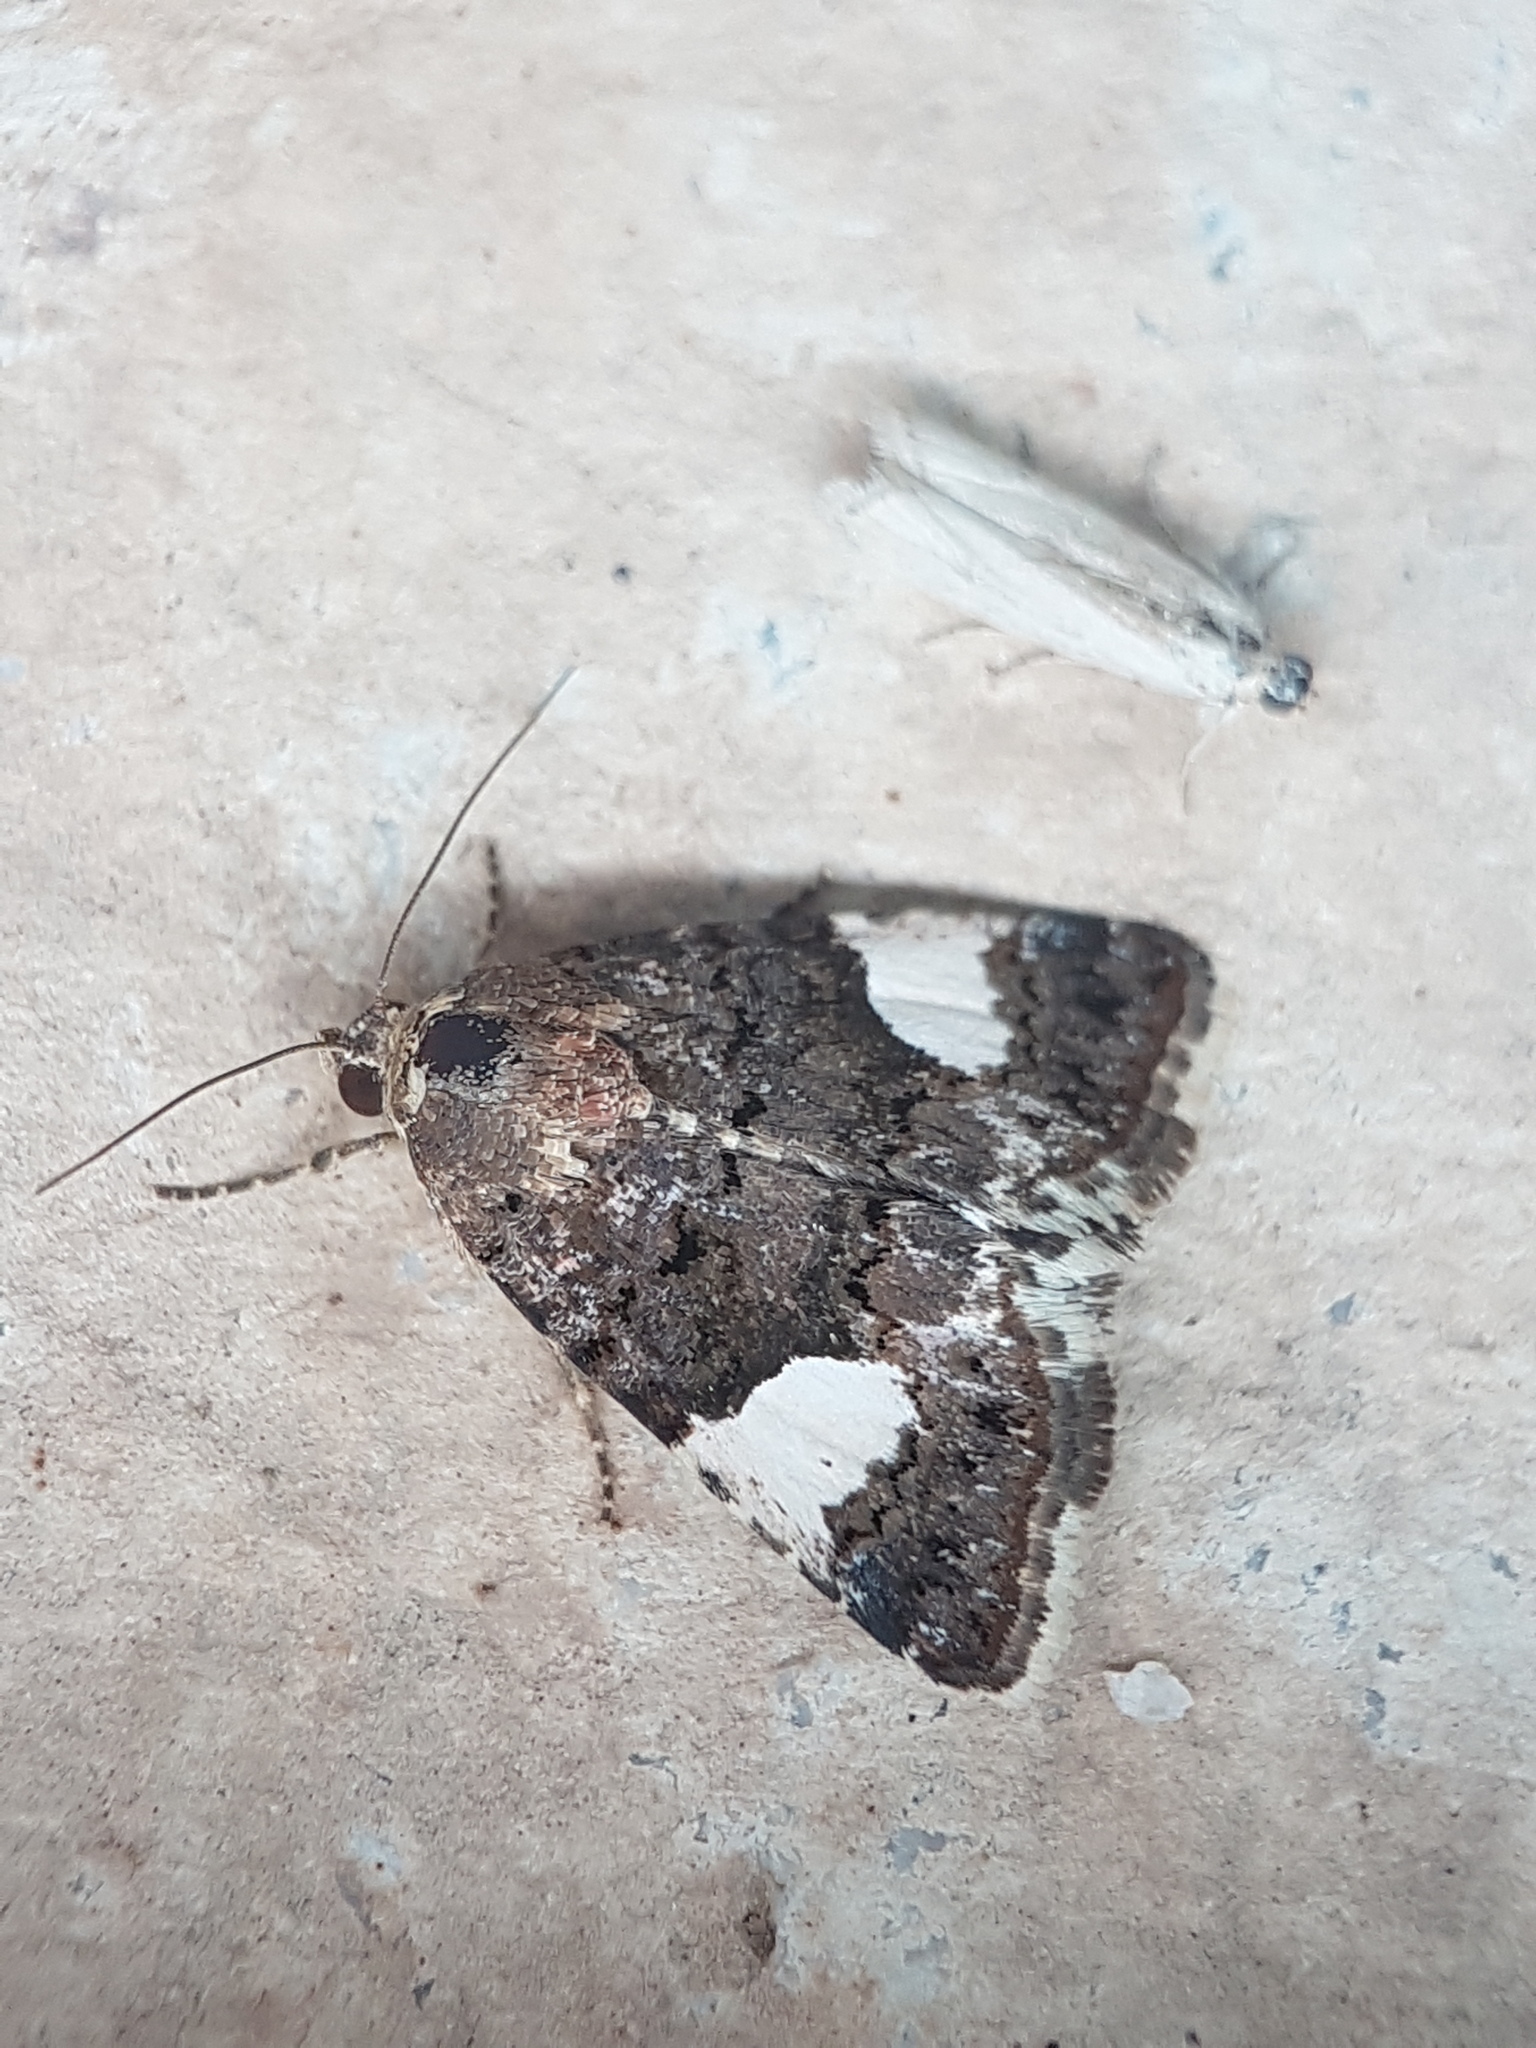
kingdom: Animalia
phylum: Arthropoda
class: Insecta
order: Lepidoptera
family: Erebidae
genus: Tyta
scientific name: Tyta luctuosa
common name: Four-spotted
